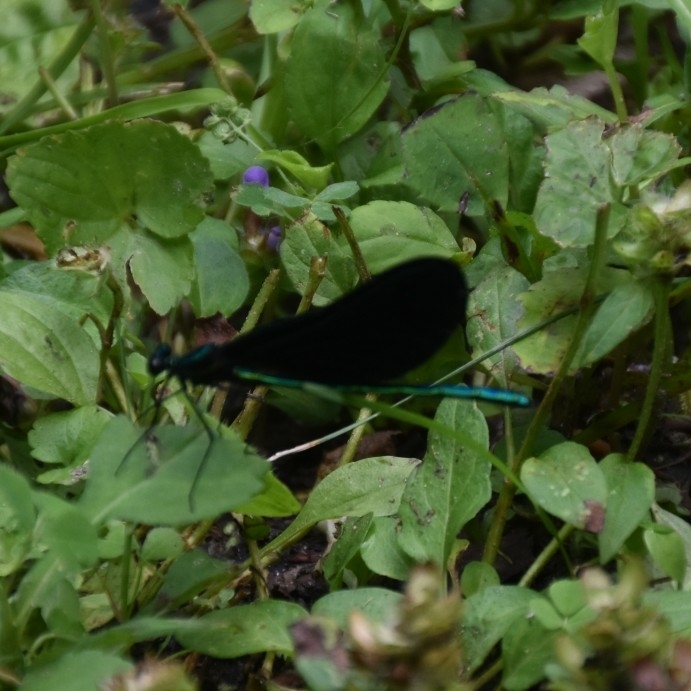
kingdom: Animalia
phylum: Arthropoda
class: Insecta
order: Odonata
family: Calopterygidae
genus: Calopteryx
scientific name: Calopteryx maculata
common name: Ebony jewelwing
